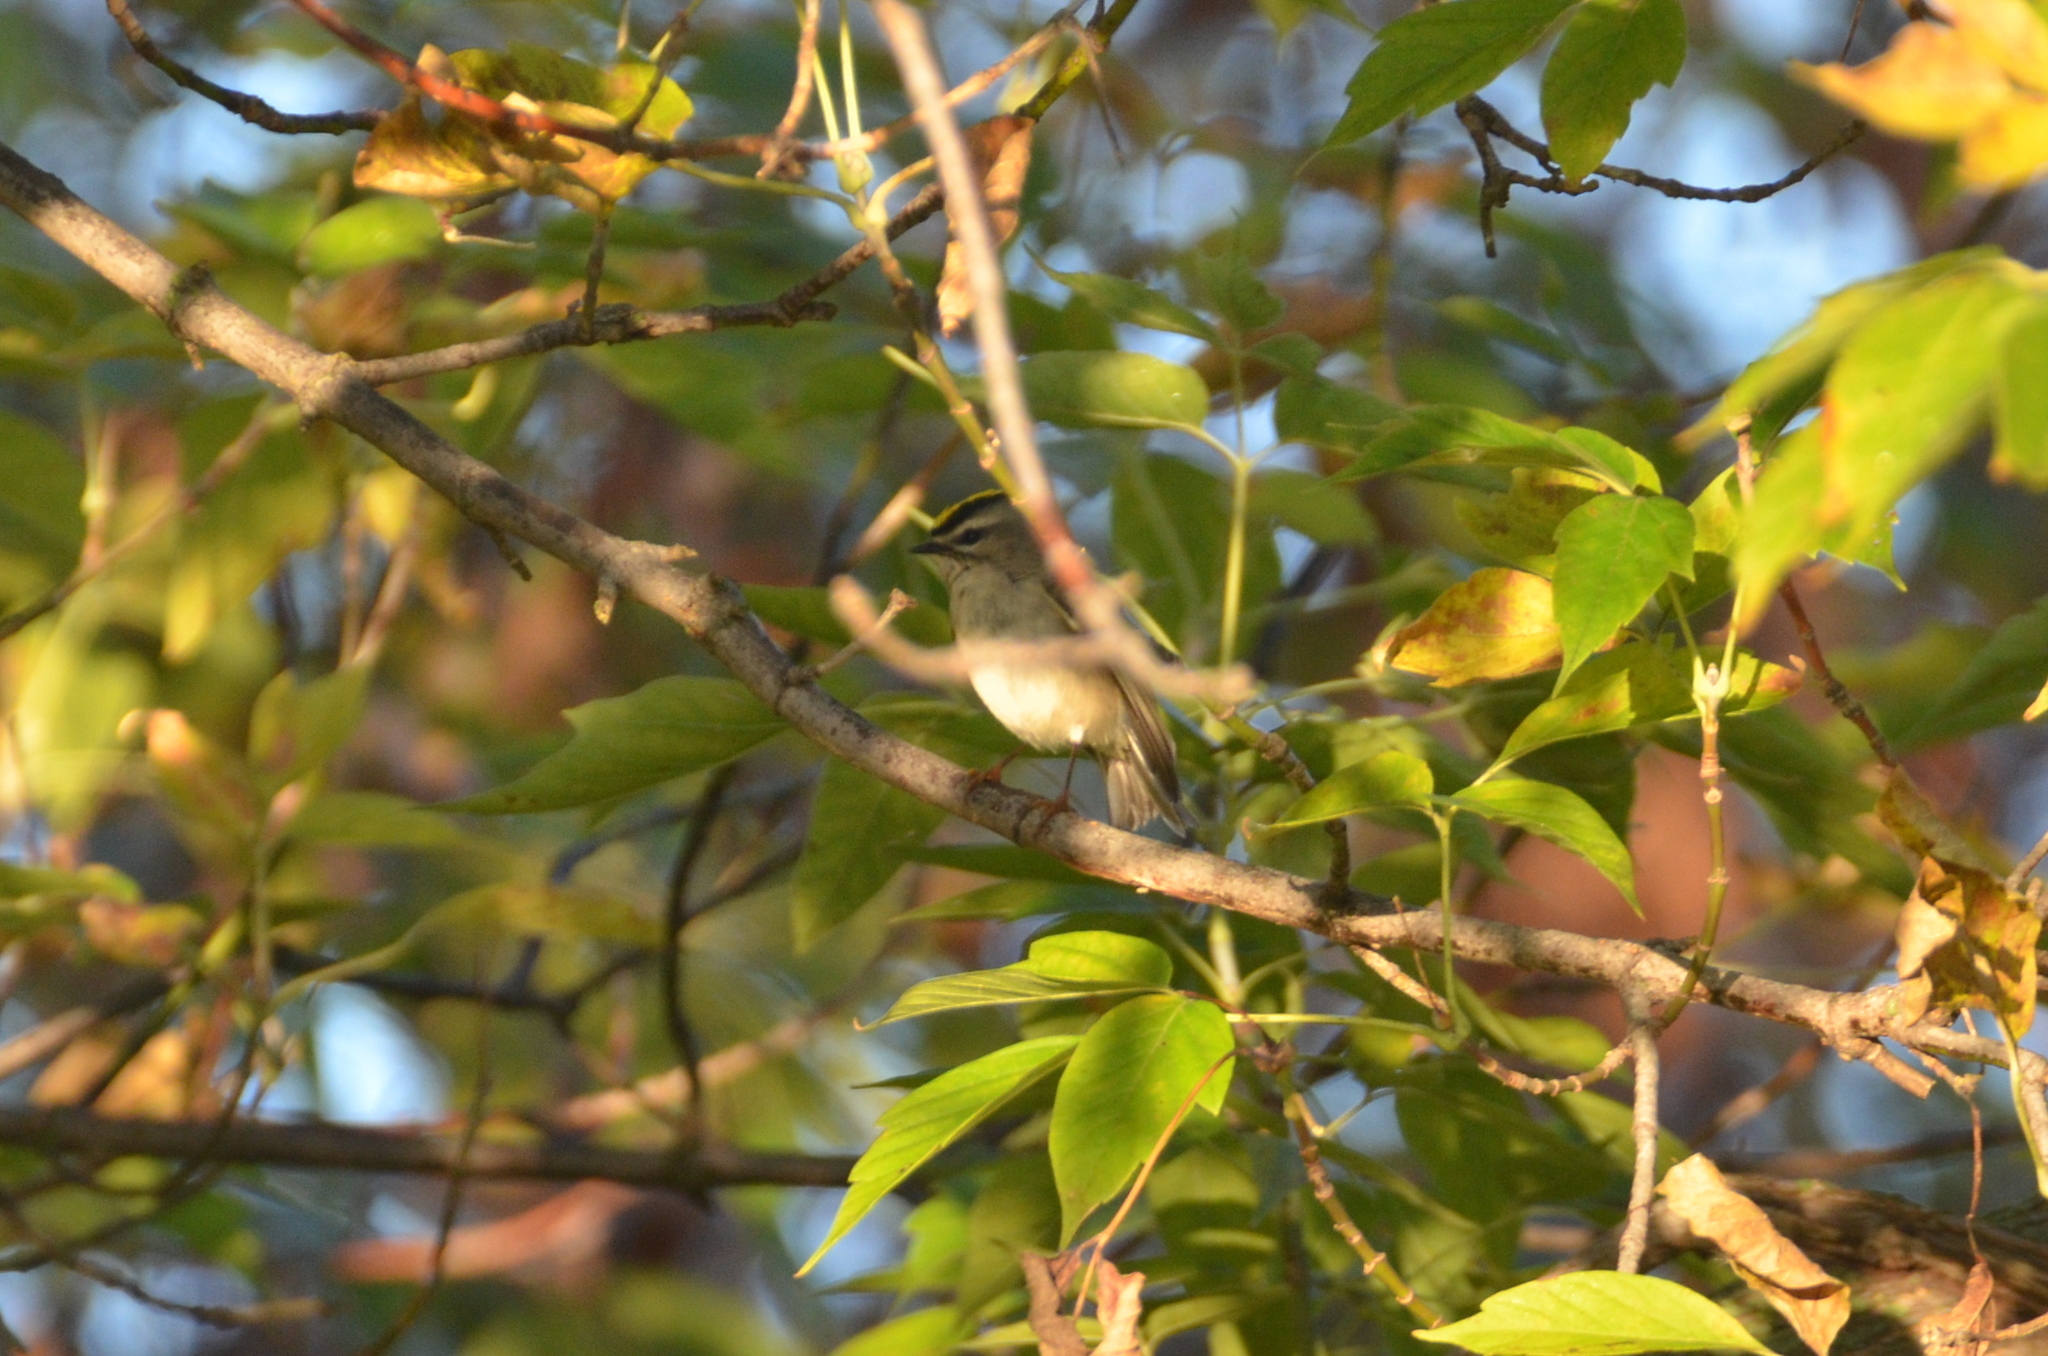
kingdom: Animalia
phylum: Chordata
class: Aves
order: Passeriformes
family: Regulidae
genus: Regulus
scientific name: Regulus satrapa
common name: Golden-crowned kinglet
